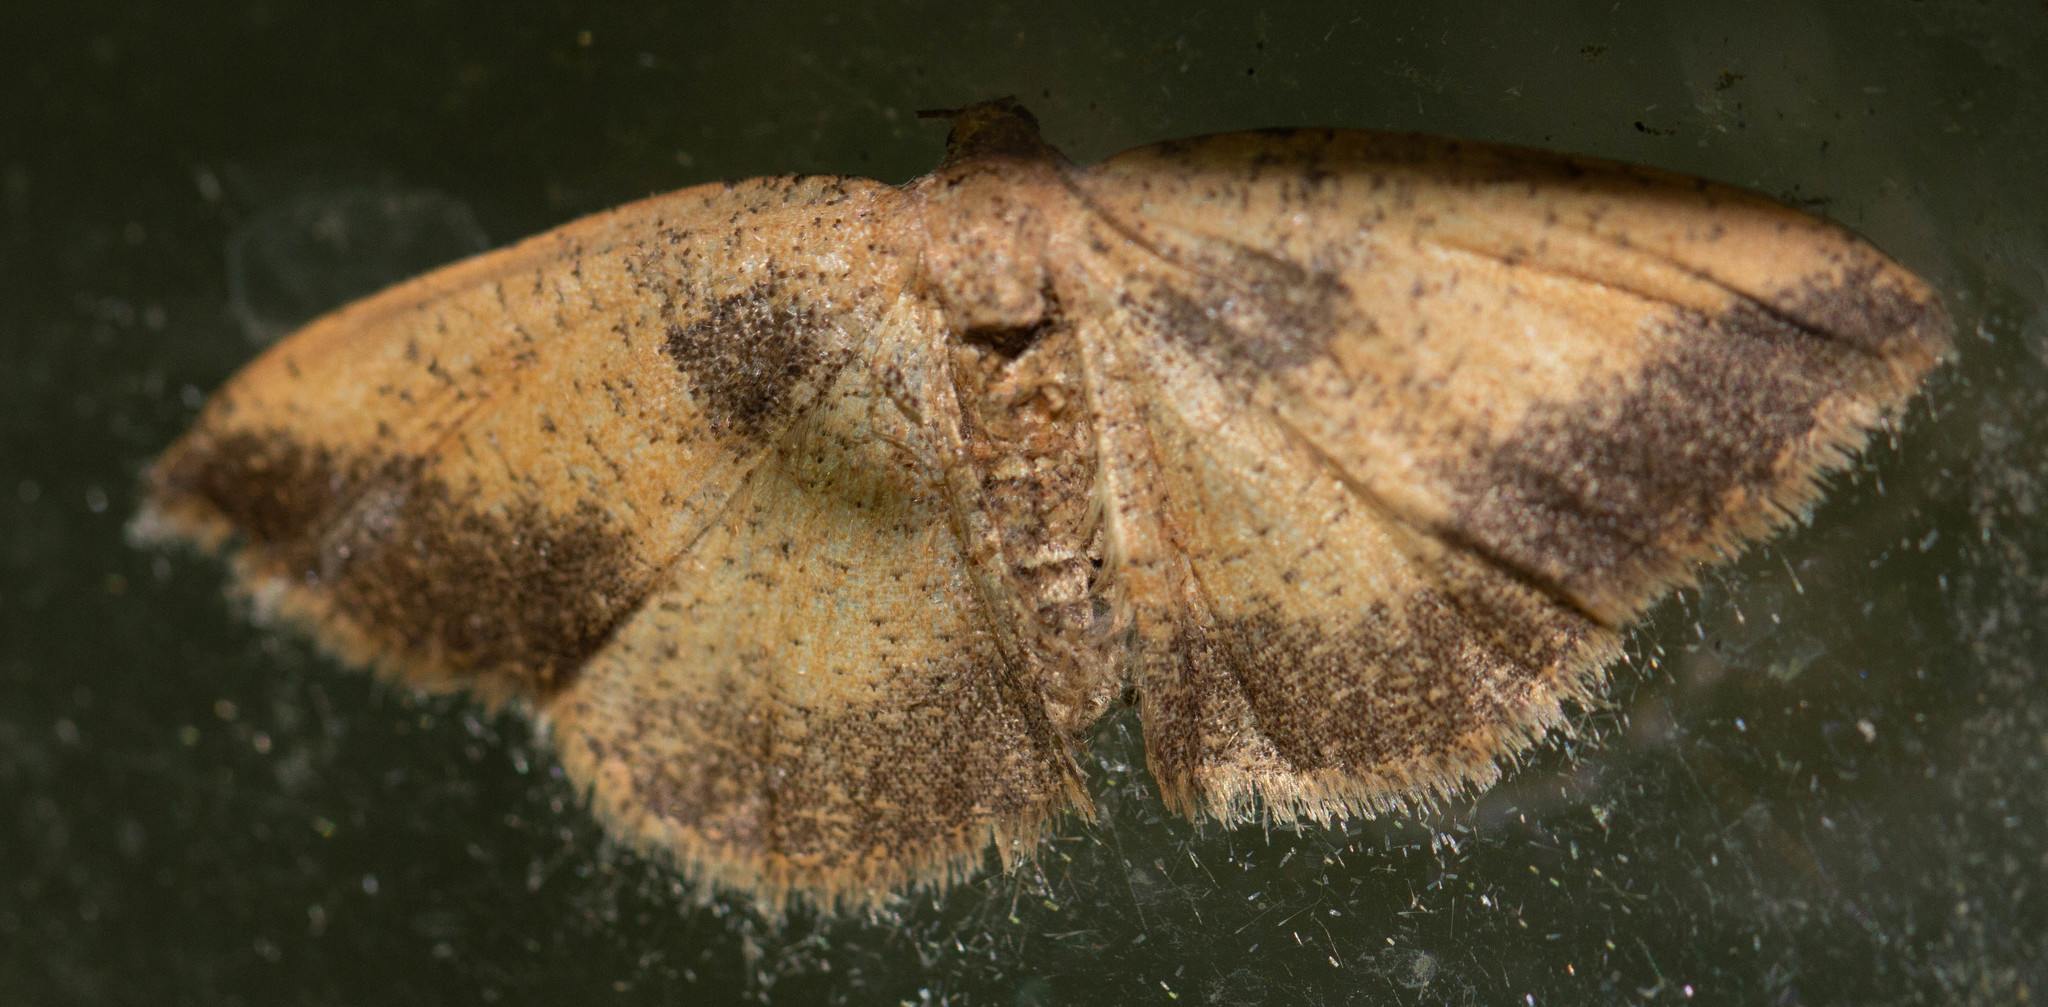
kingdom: Animalia
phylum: Arthropoda
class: Insecta
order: Lepidoptera
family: Geometridae
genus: Episemasia
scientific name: Episemasia solitaria
